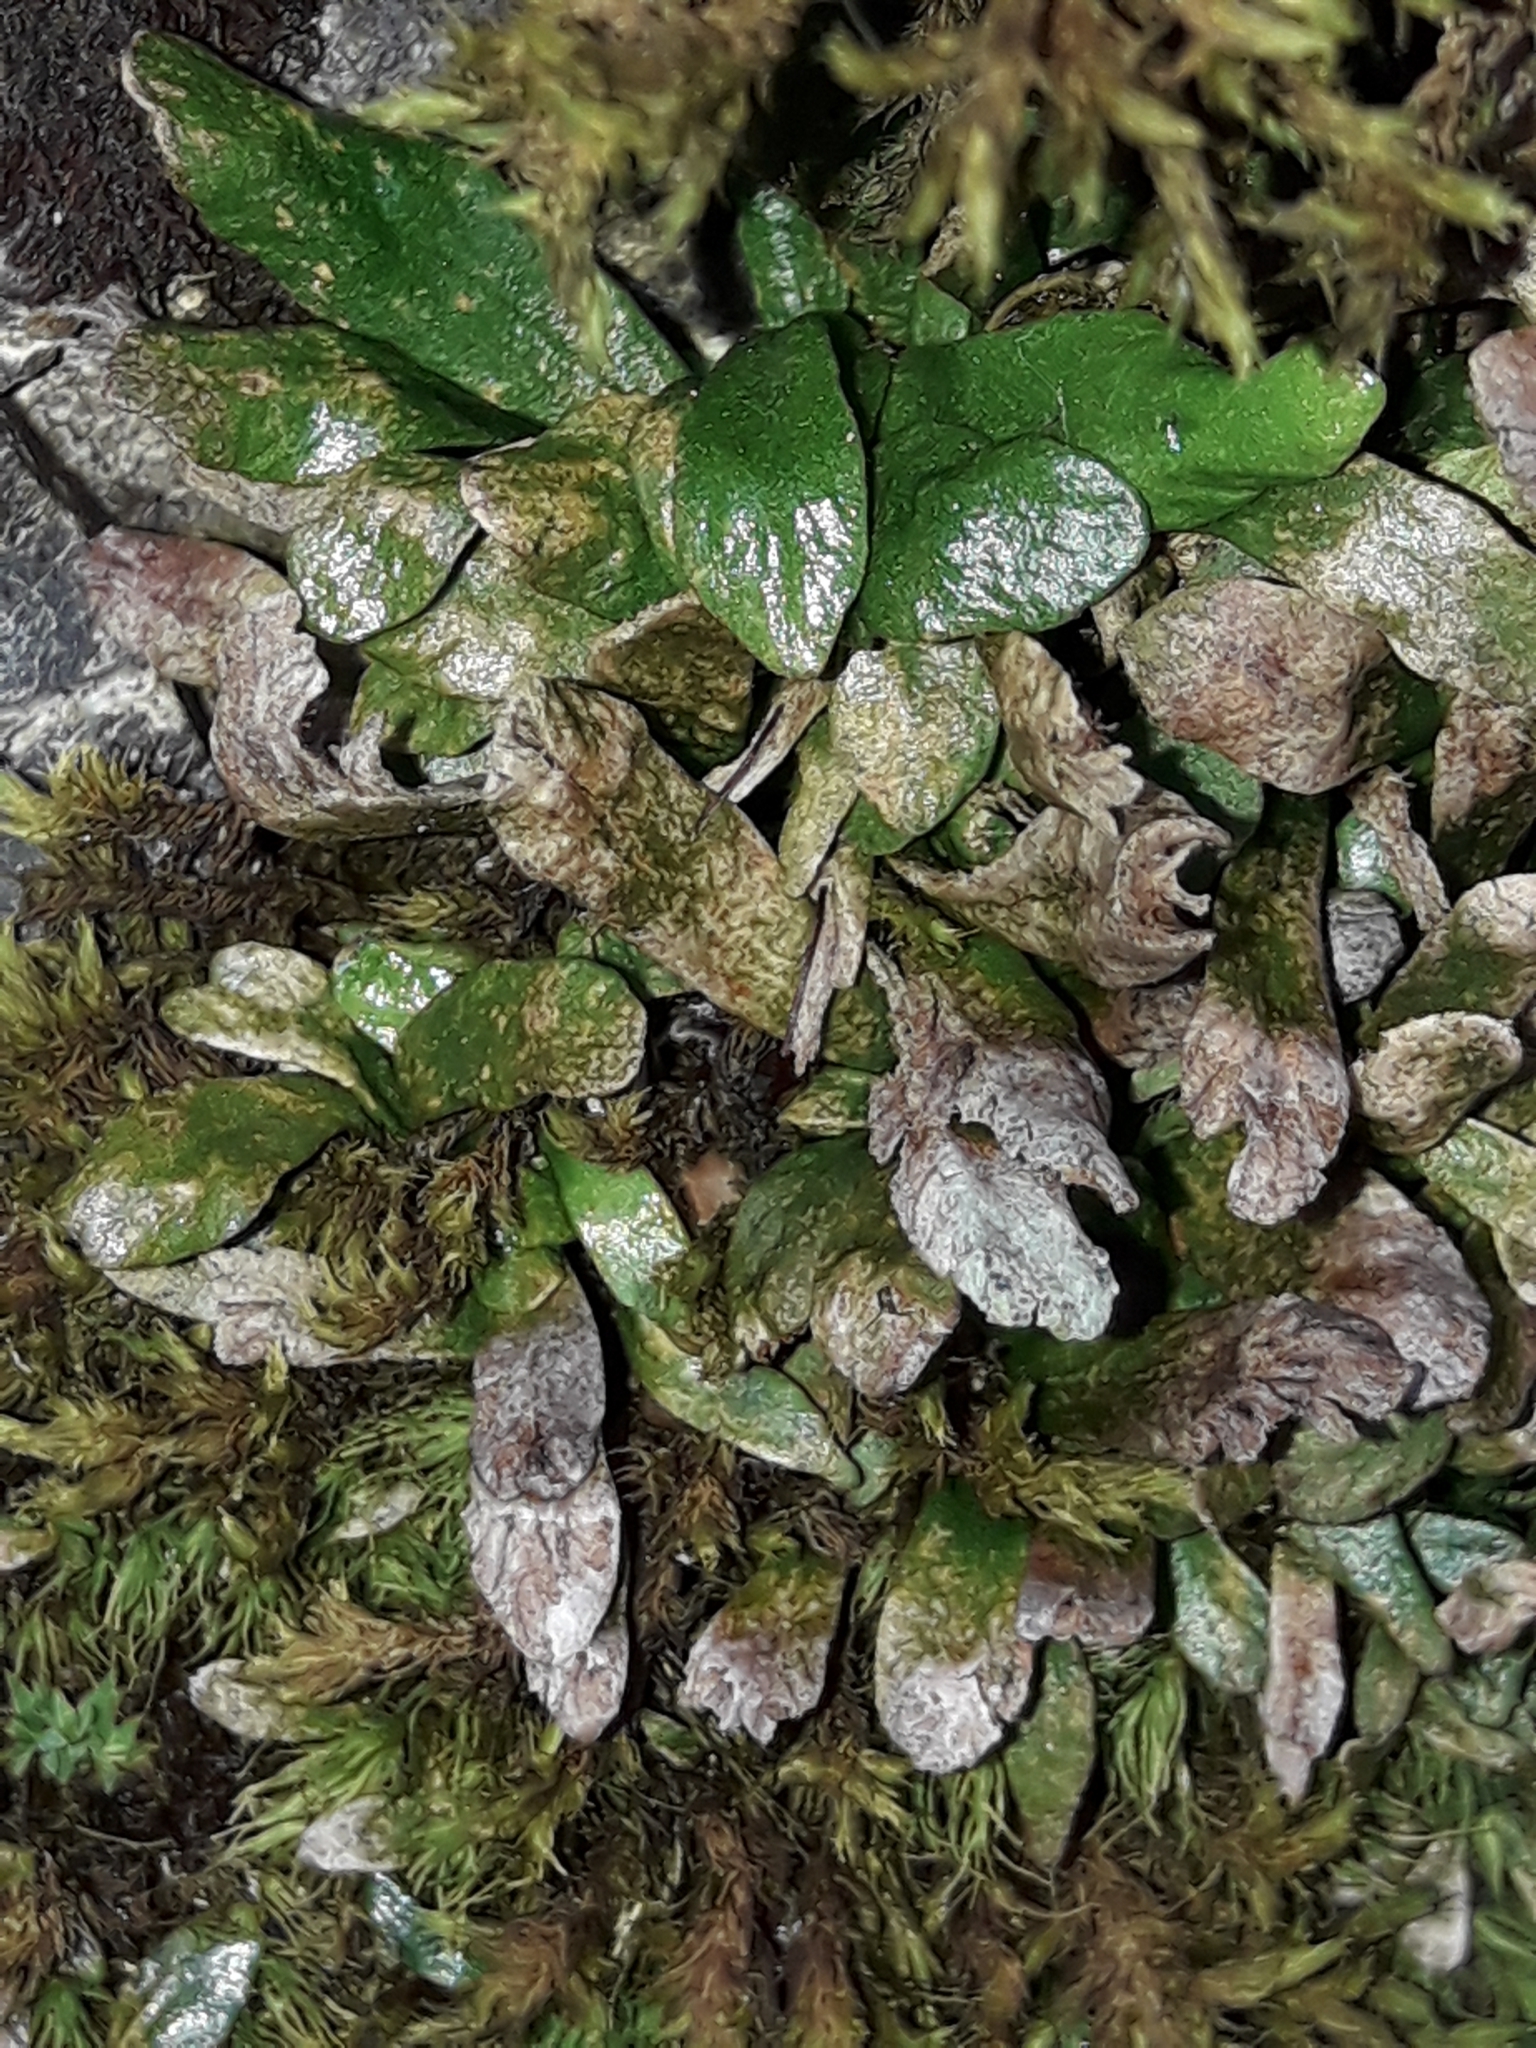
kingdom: Plantae
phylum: Tracheophyta
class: Polypodiopsida
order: Polypodiales
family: Polypodiaceae
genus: Notogrammitis
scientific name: Notogrammitis crassior
